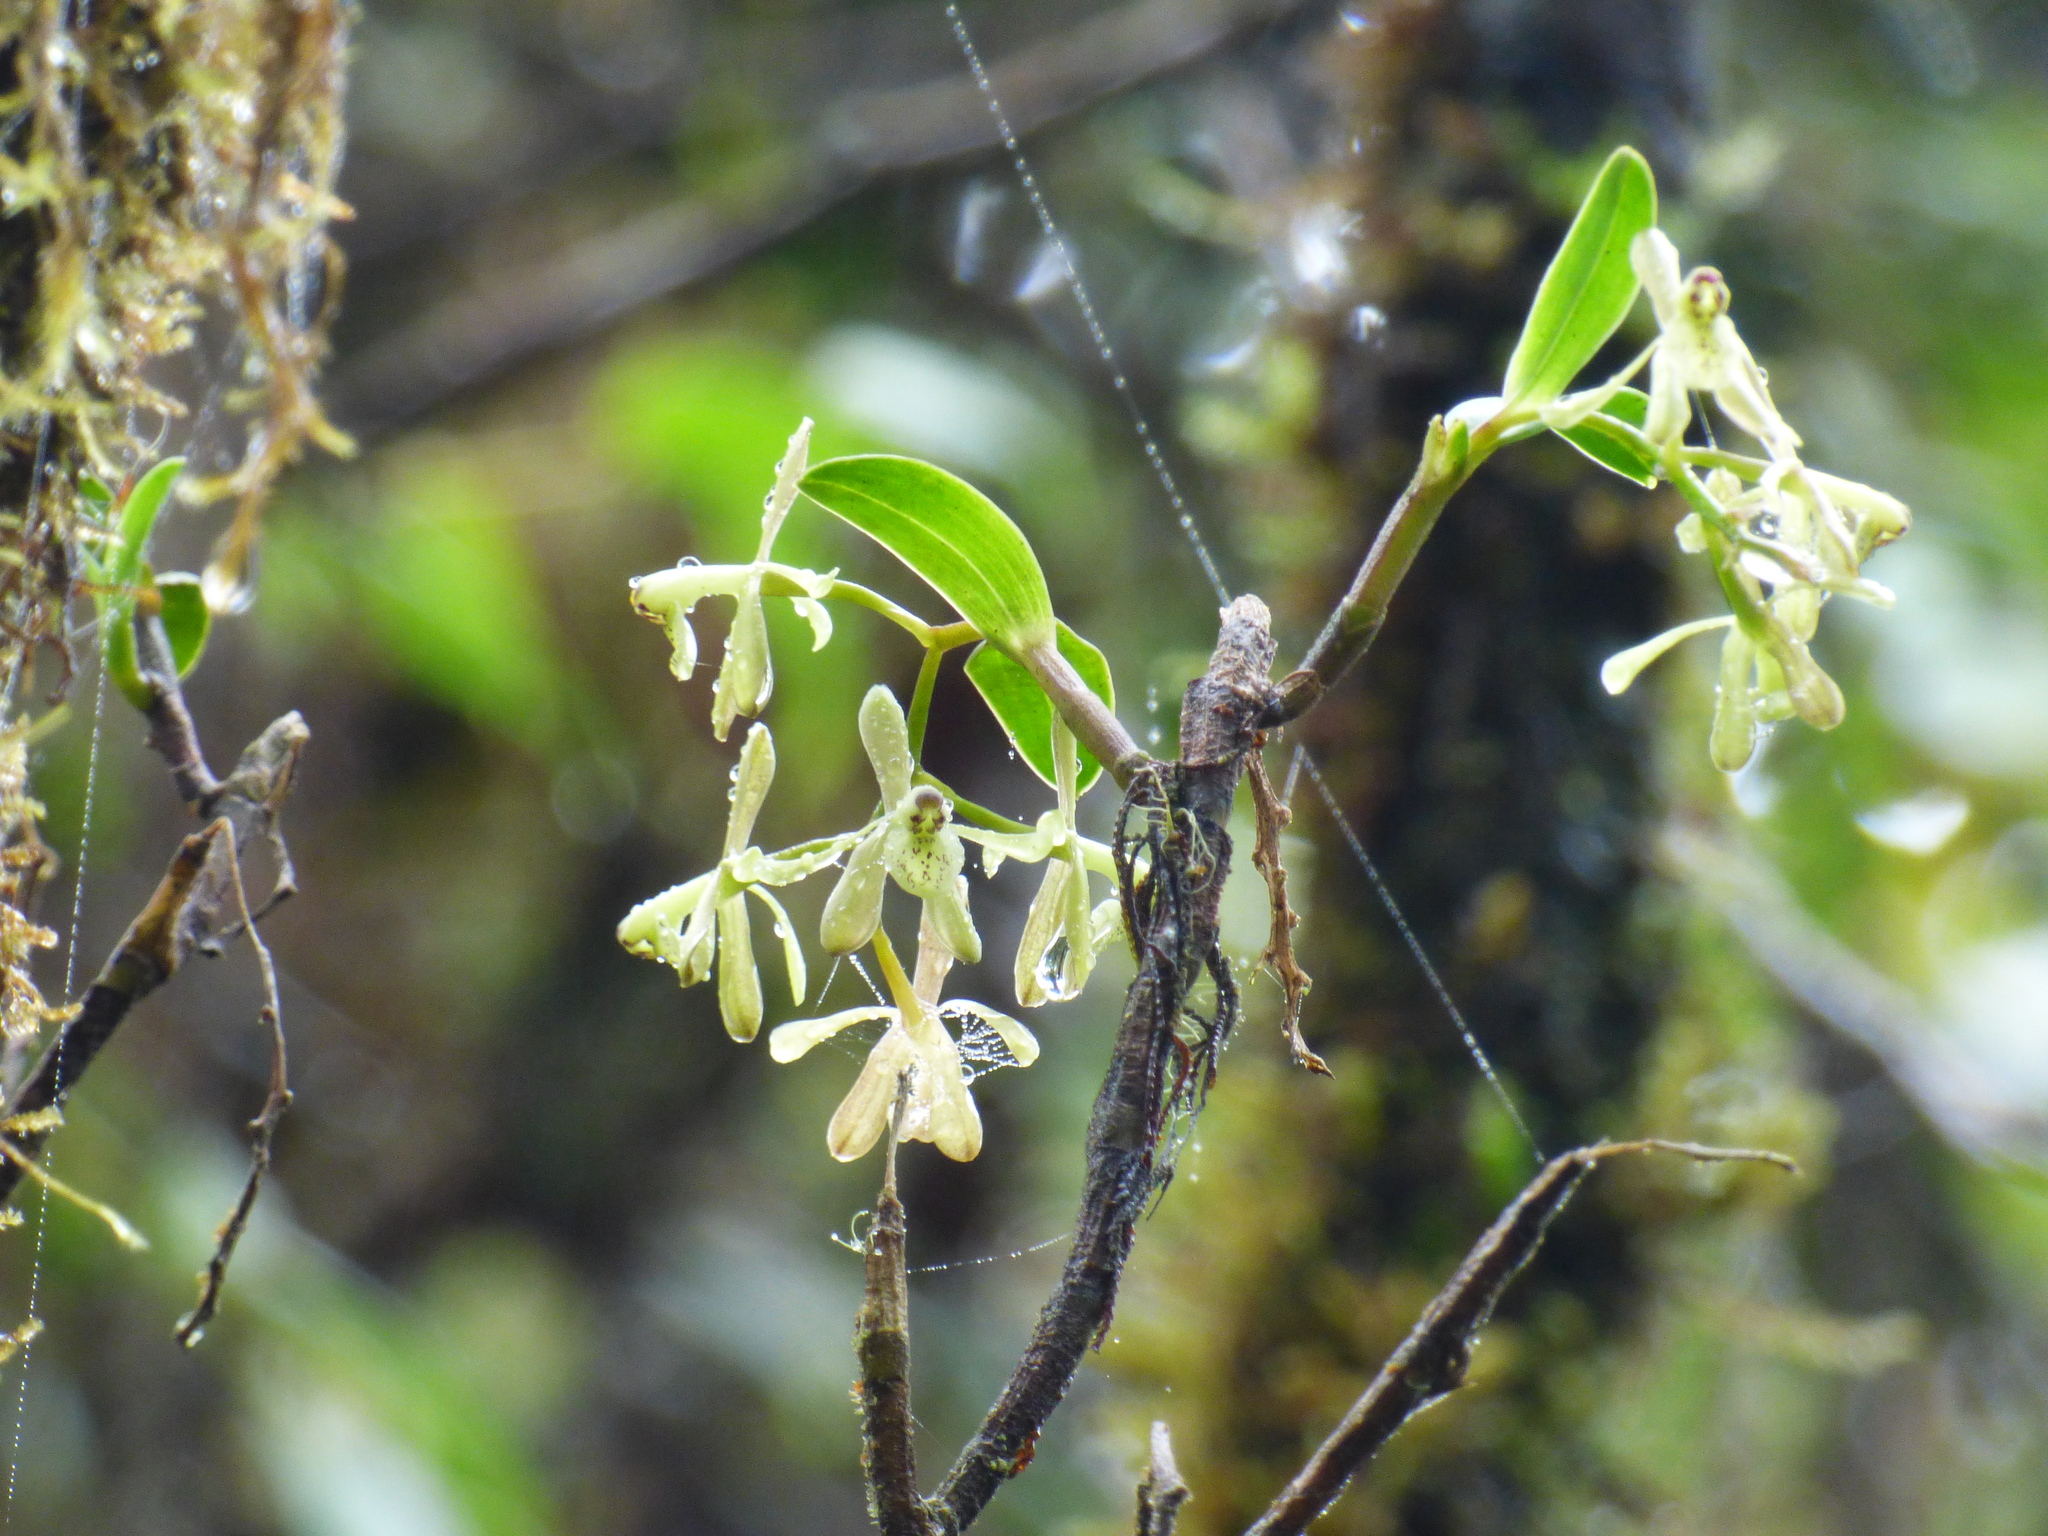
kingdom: Plantae
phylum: Tracheophyta
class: Liliopsida
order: Asparagales
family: Orchidaceae
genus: Epidendrum
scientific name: Epidendrum erosum
